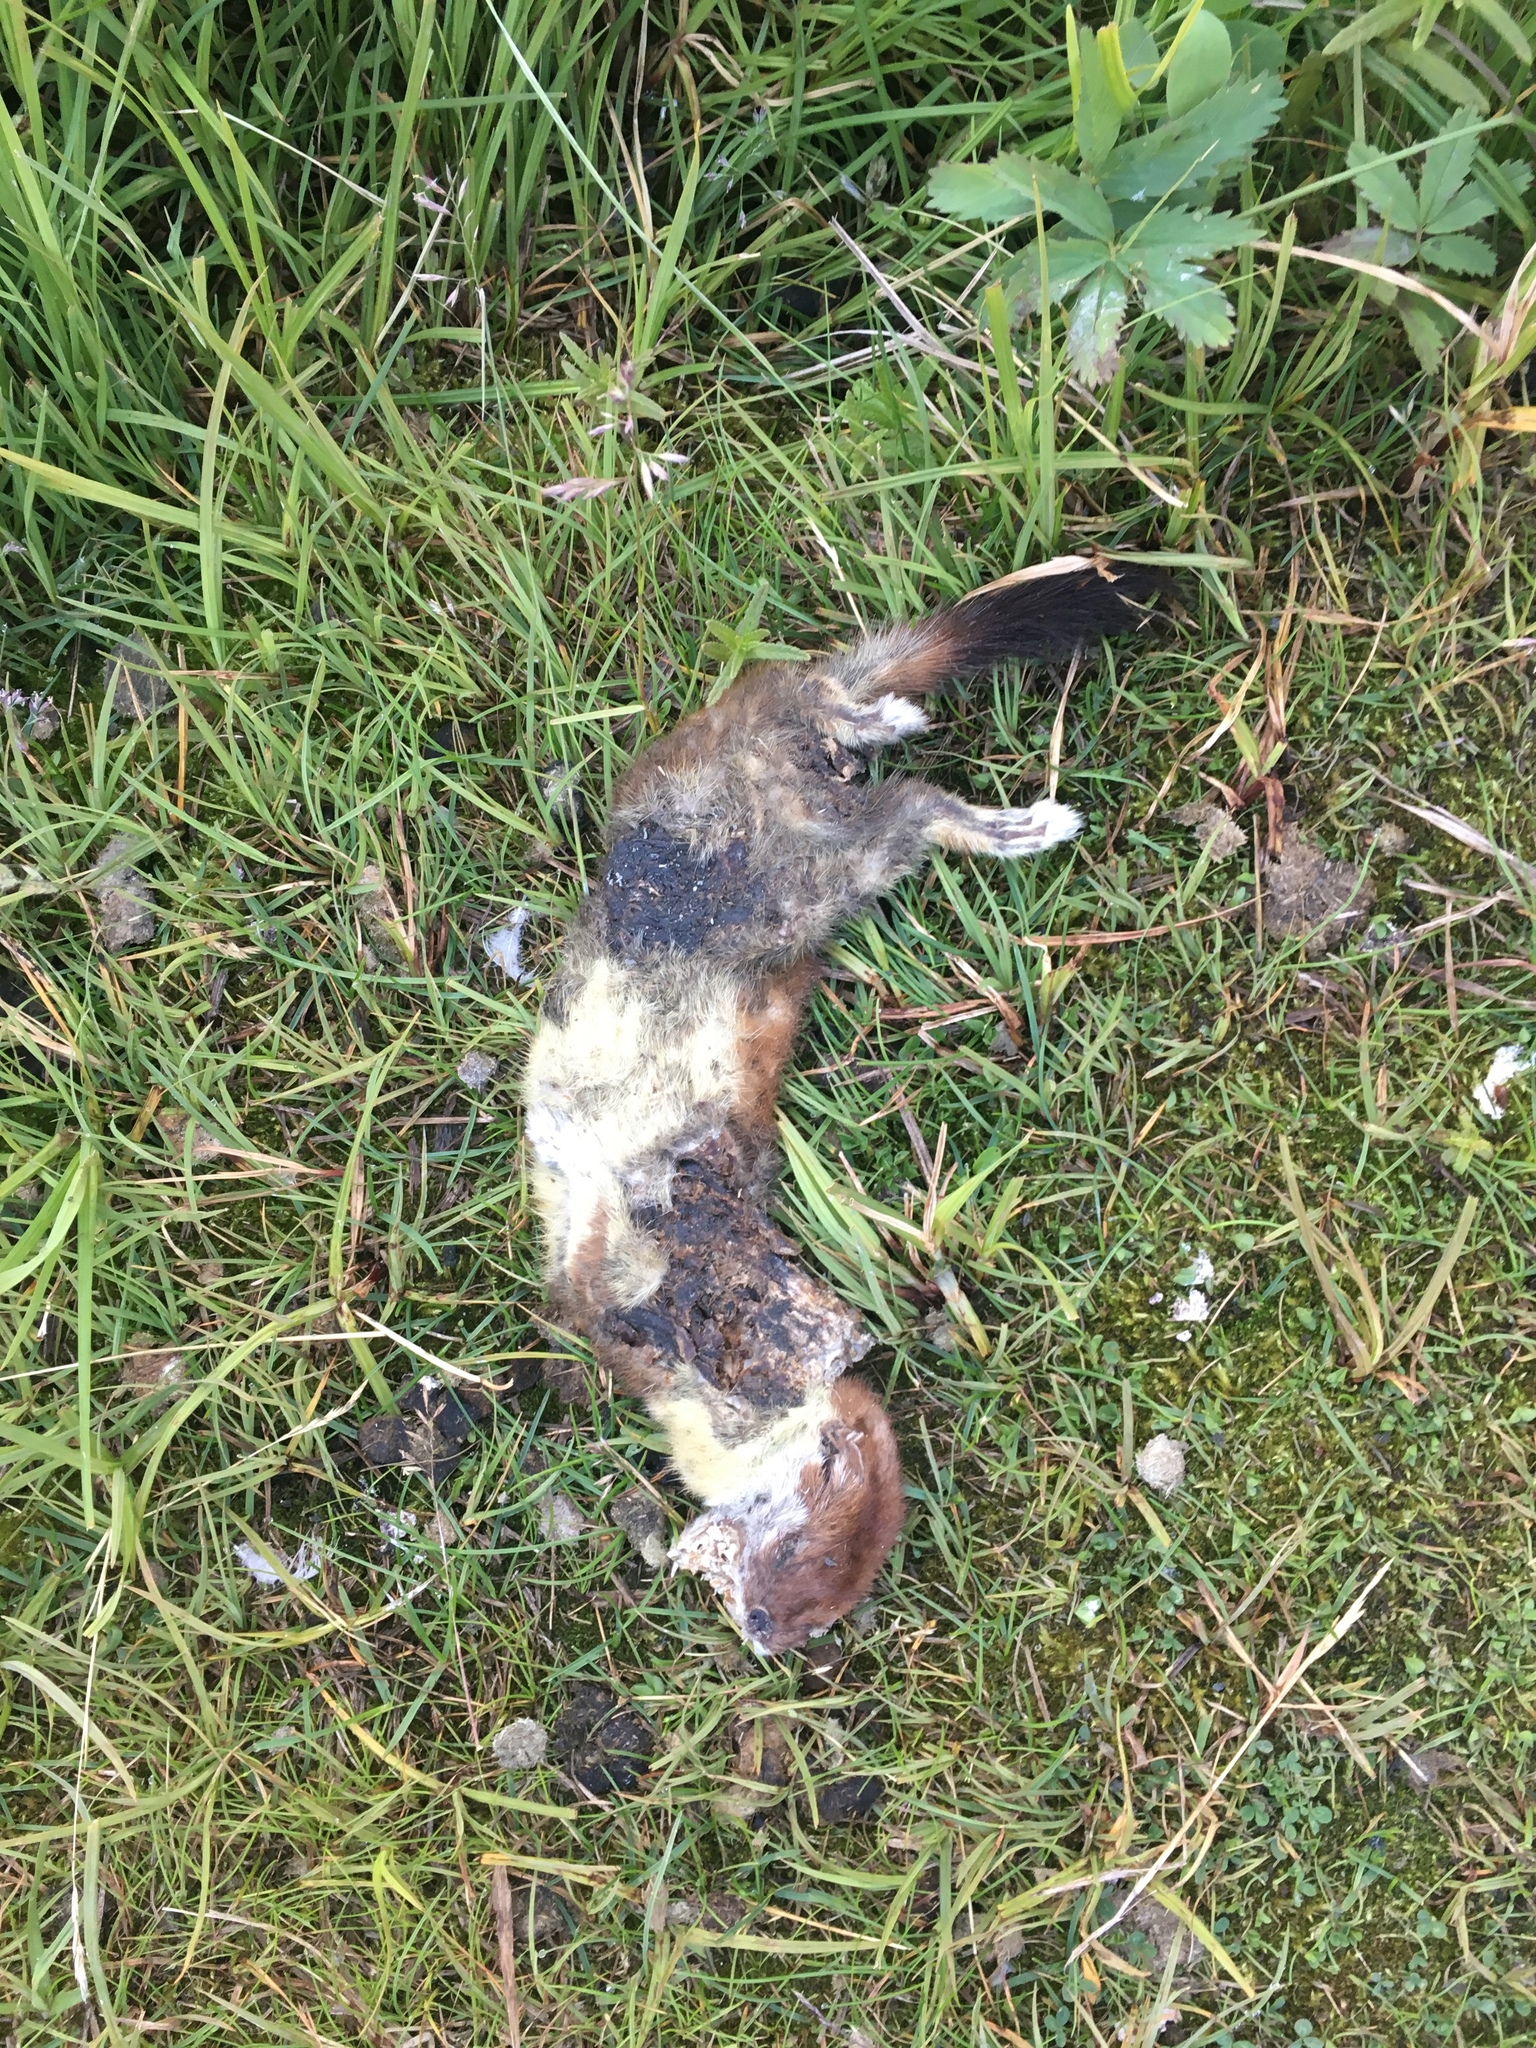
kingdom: Animalia
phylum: Chordata
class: Mammalia
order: Carnivora
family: Mustelidae
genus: Mustela
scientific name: Mustela erminea
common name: Stoat
